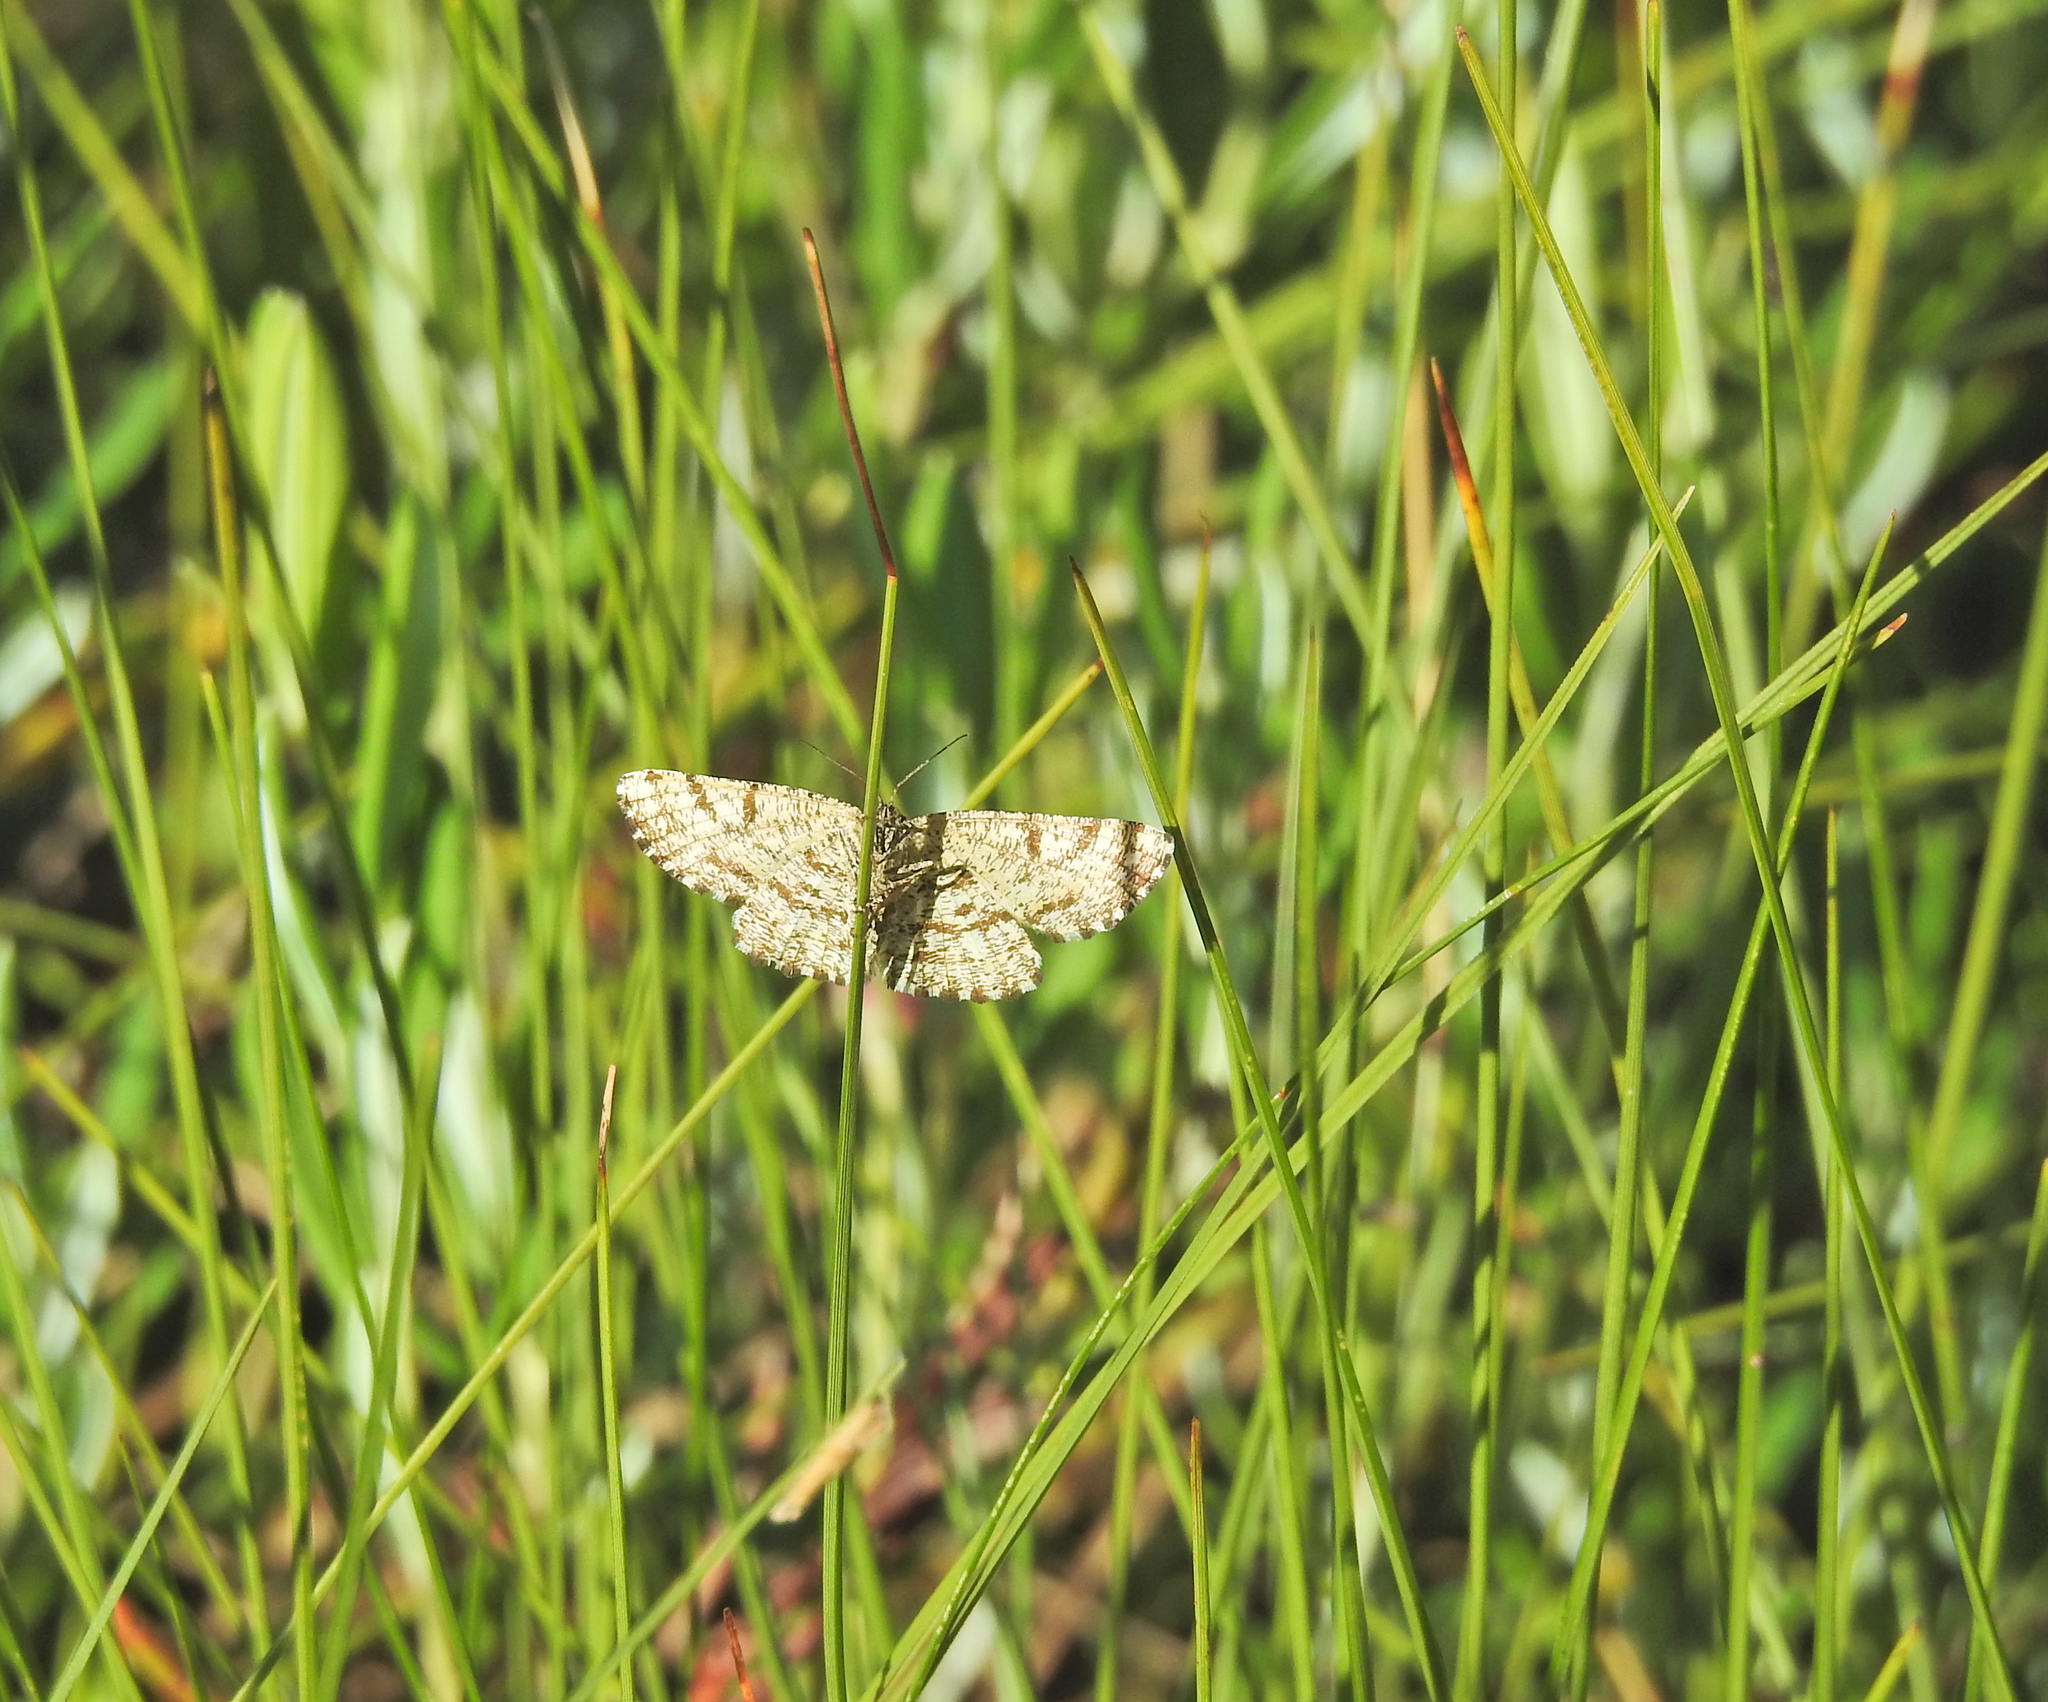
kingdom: Animalia
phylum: Arthropoda
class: Insecta
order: Lepidoptera
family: Geometridae
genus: Ematurga
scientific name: Ematurga atomaria
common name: Common heath
